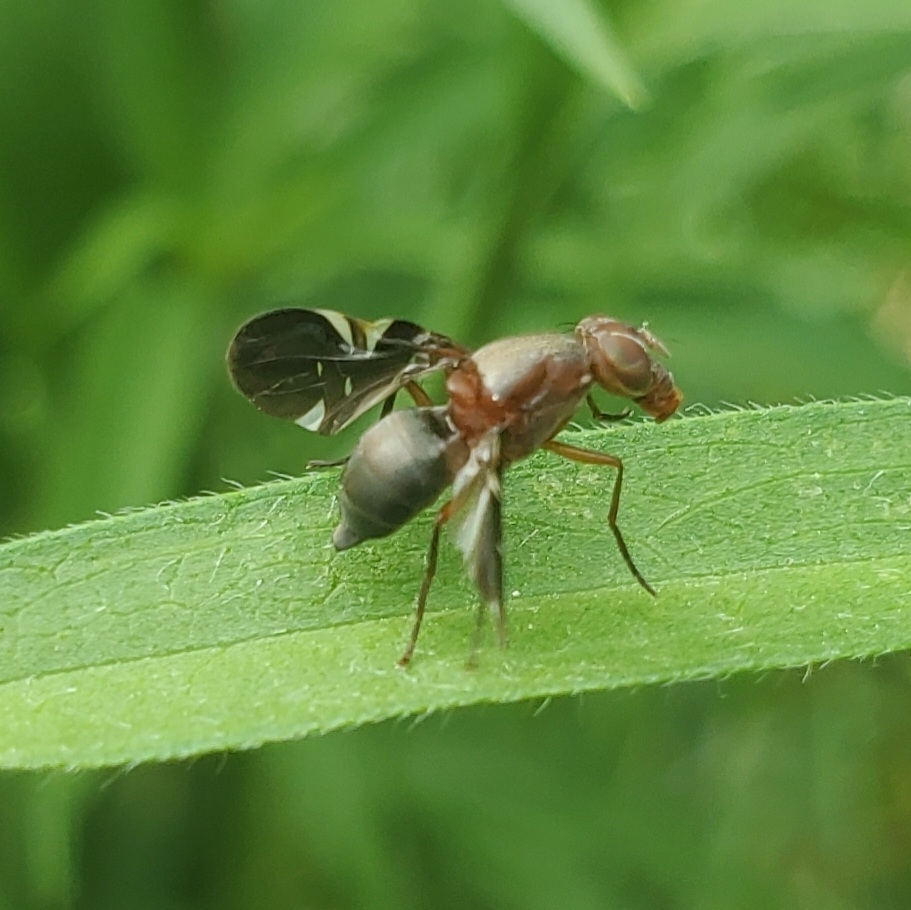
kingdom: Animalia
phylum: Arthropoda
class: Insecta
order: Diptera
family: Ulidiidae
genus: Delphinia
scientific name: Delphinia picta
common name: Common picture-winged fly
